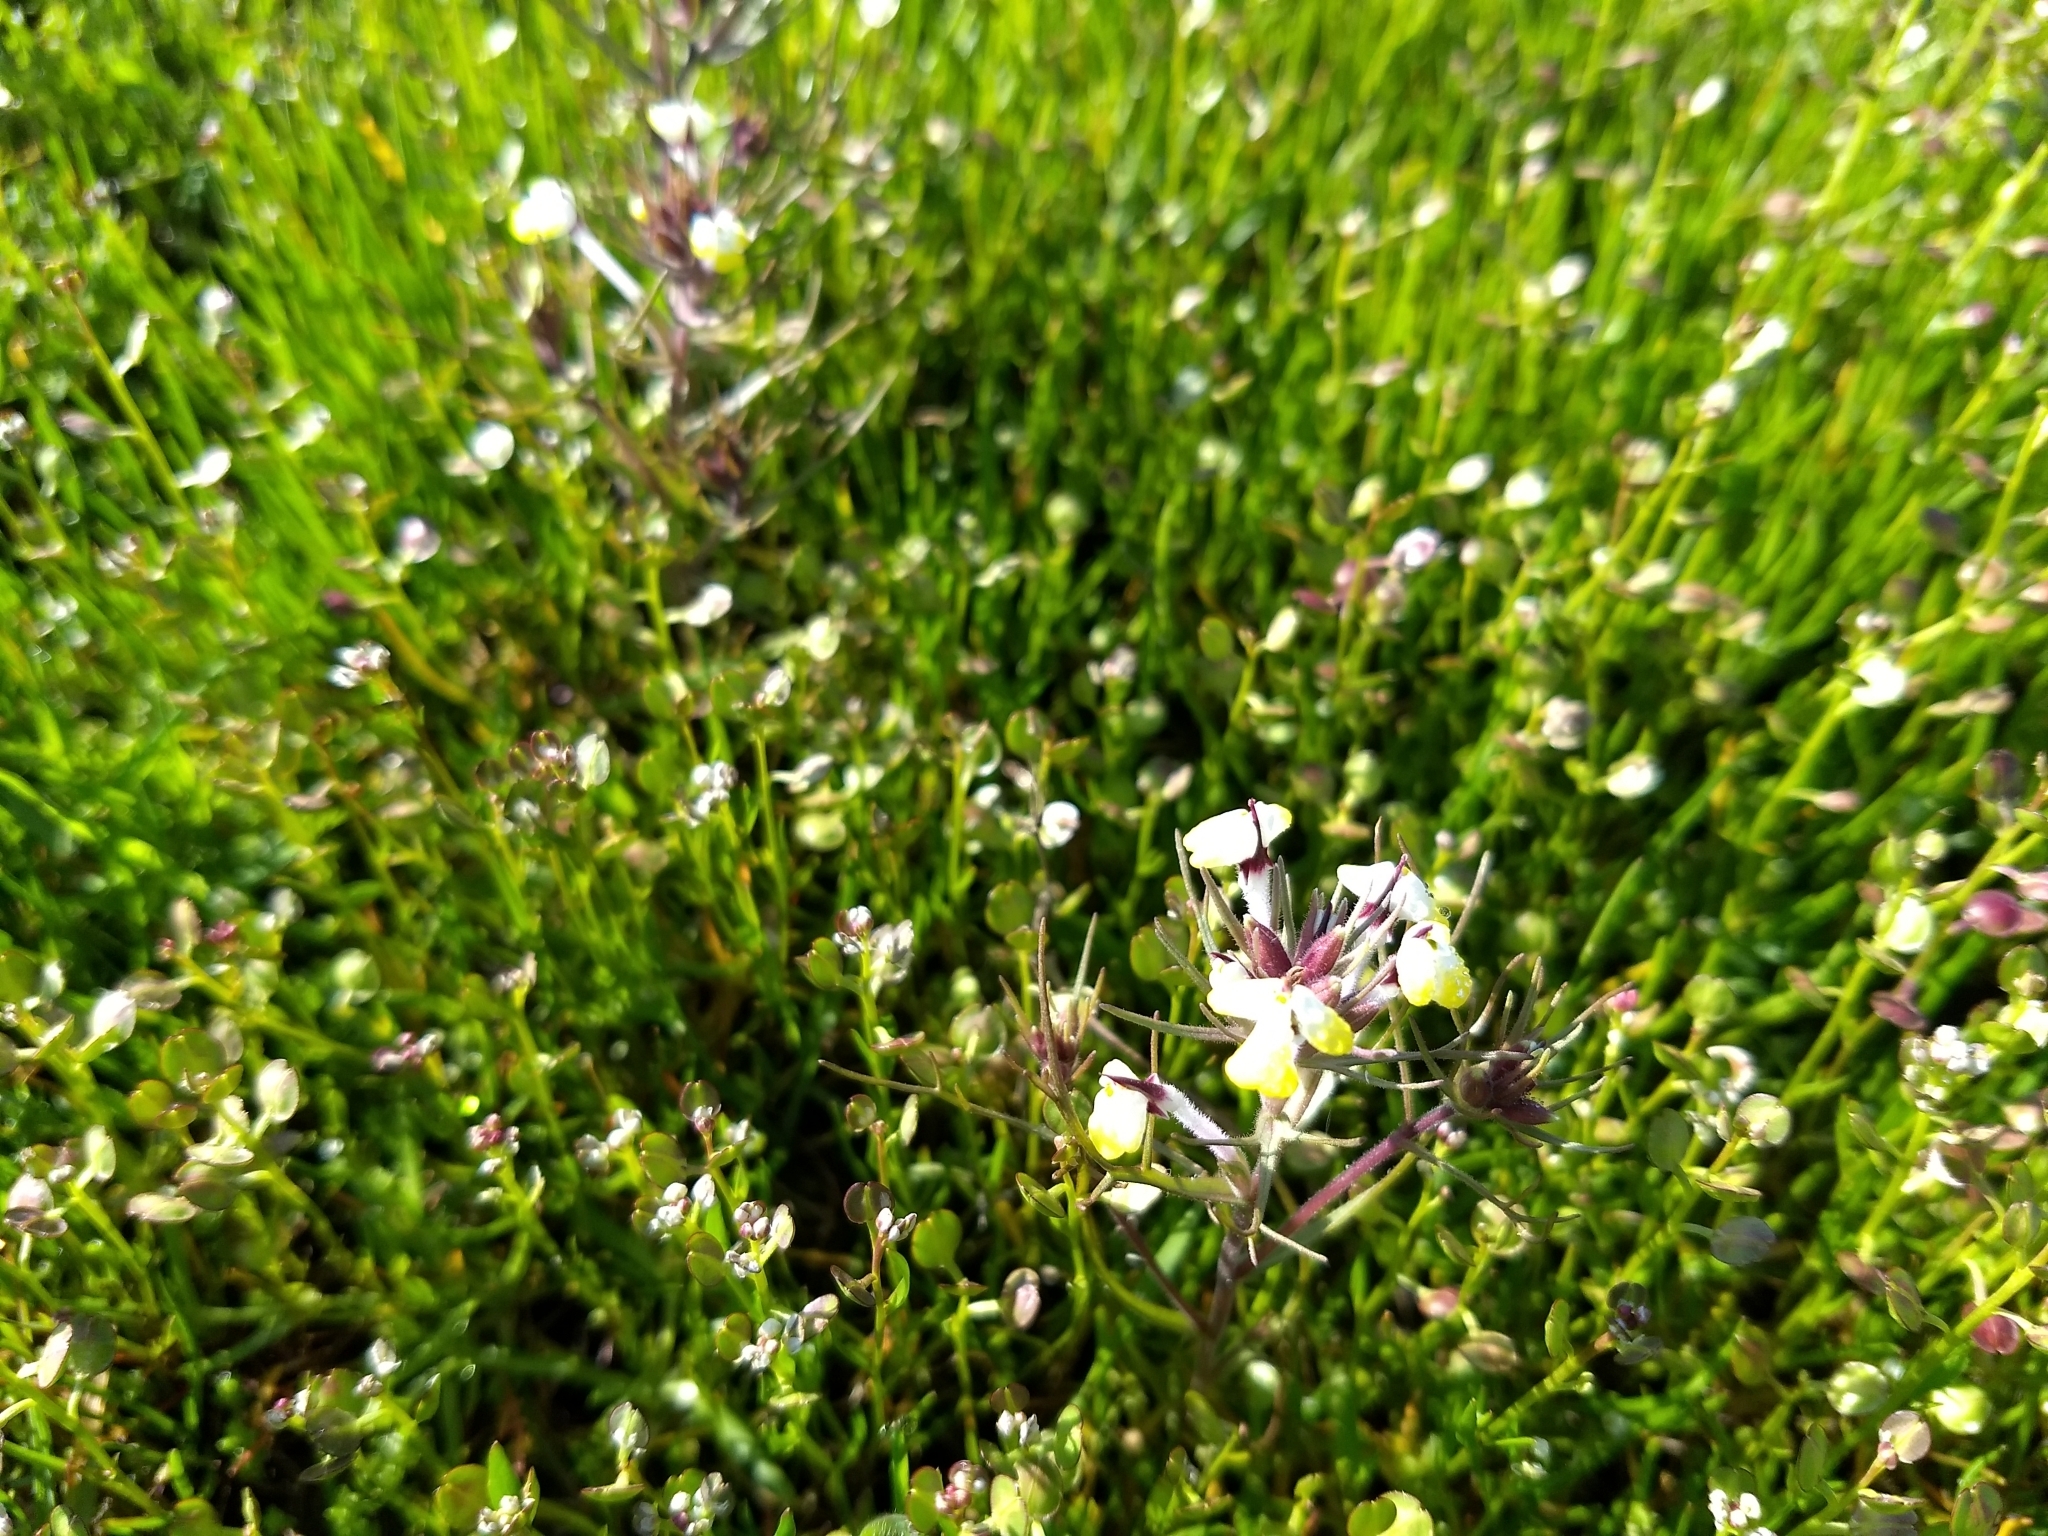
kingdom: Plantae
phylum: Tracheophyta
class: Magnoliopsida
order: Lamiales
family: Orobanchaceae
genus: Triphysaria
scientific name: Triphysaria eriantha
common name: Johnny-tuck
